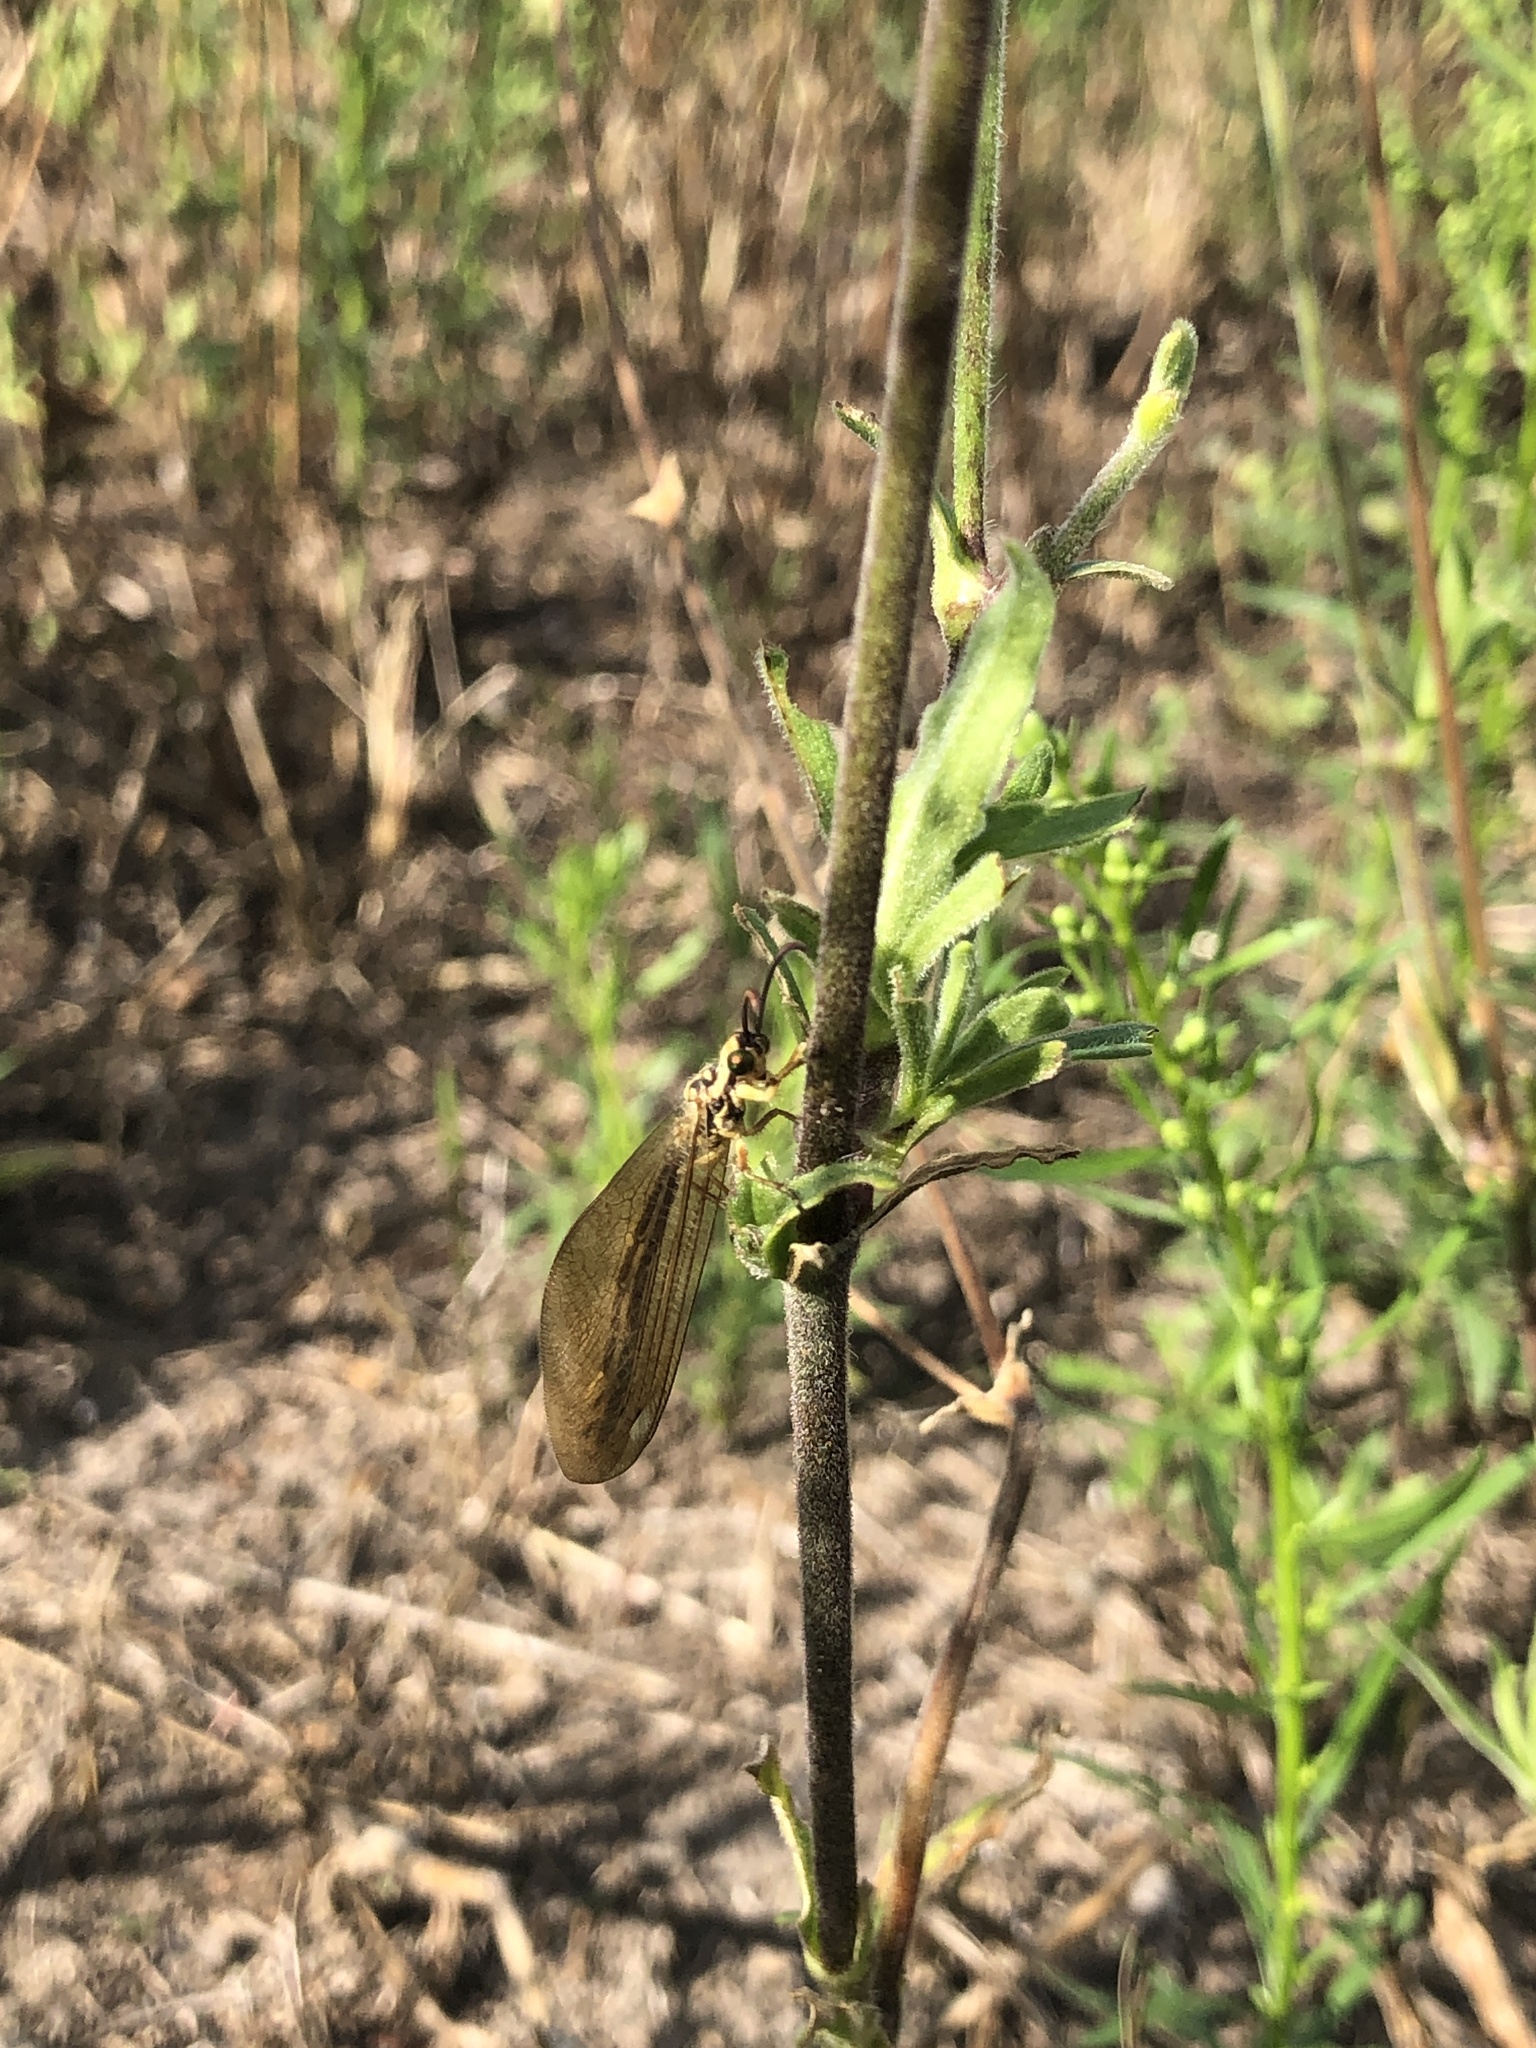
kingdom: Animalia
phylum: Arthropoda
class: Insecta
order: Neuroptera
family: Myrmeleontidae
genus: Myrmecaelurus
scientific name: Myrmecaelurus trigrammus
